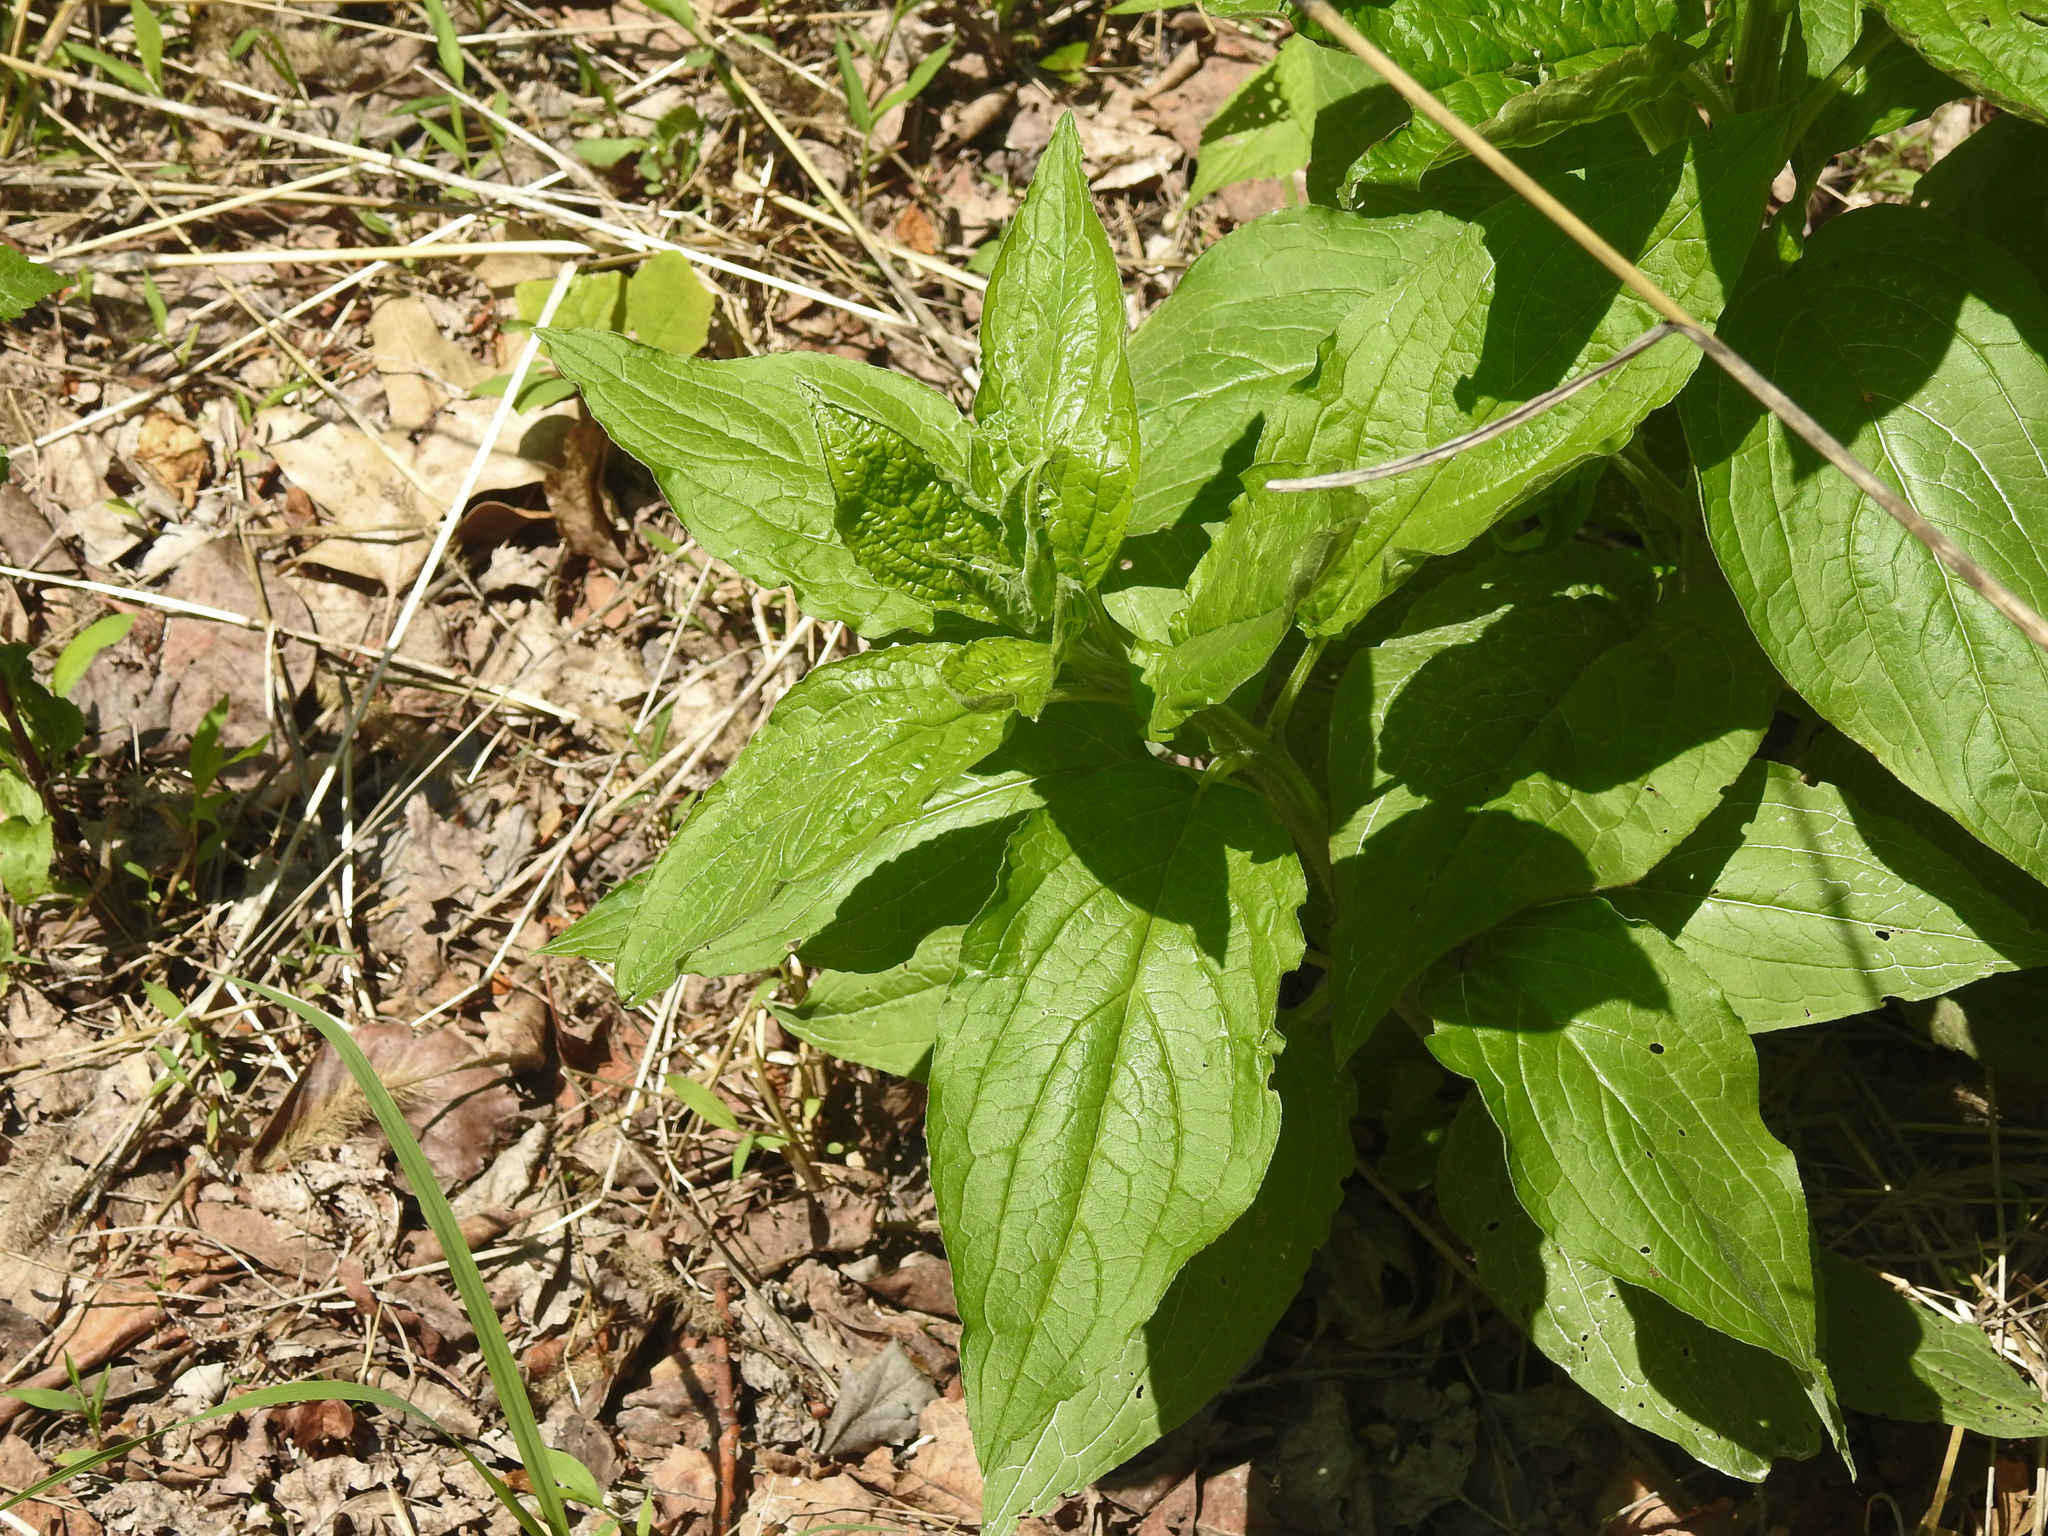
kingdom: Plantae
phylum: Tracheophyta
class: Magnoliopsida
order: Boraginales
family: Boraginaceae
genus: Hackelia
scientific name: Hackelia virginiana
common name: Beggar's-lice
